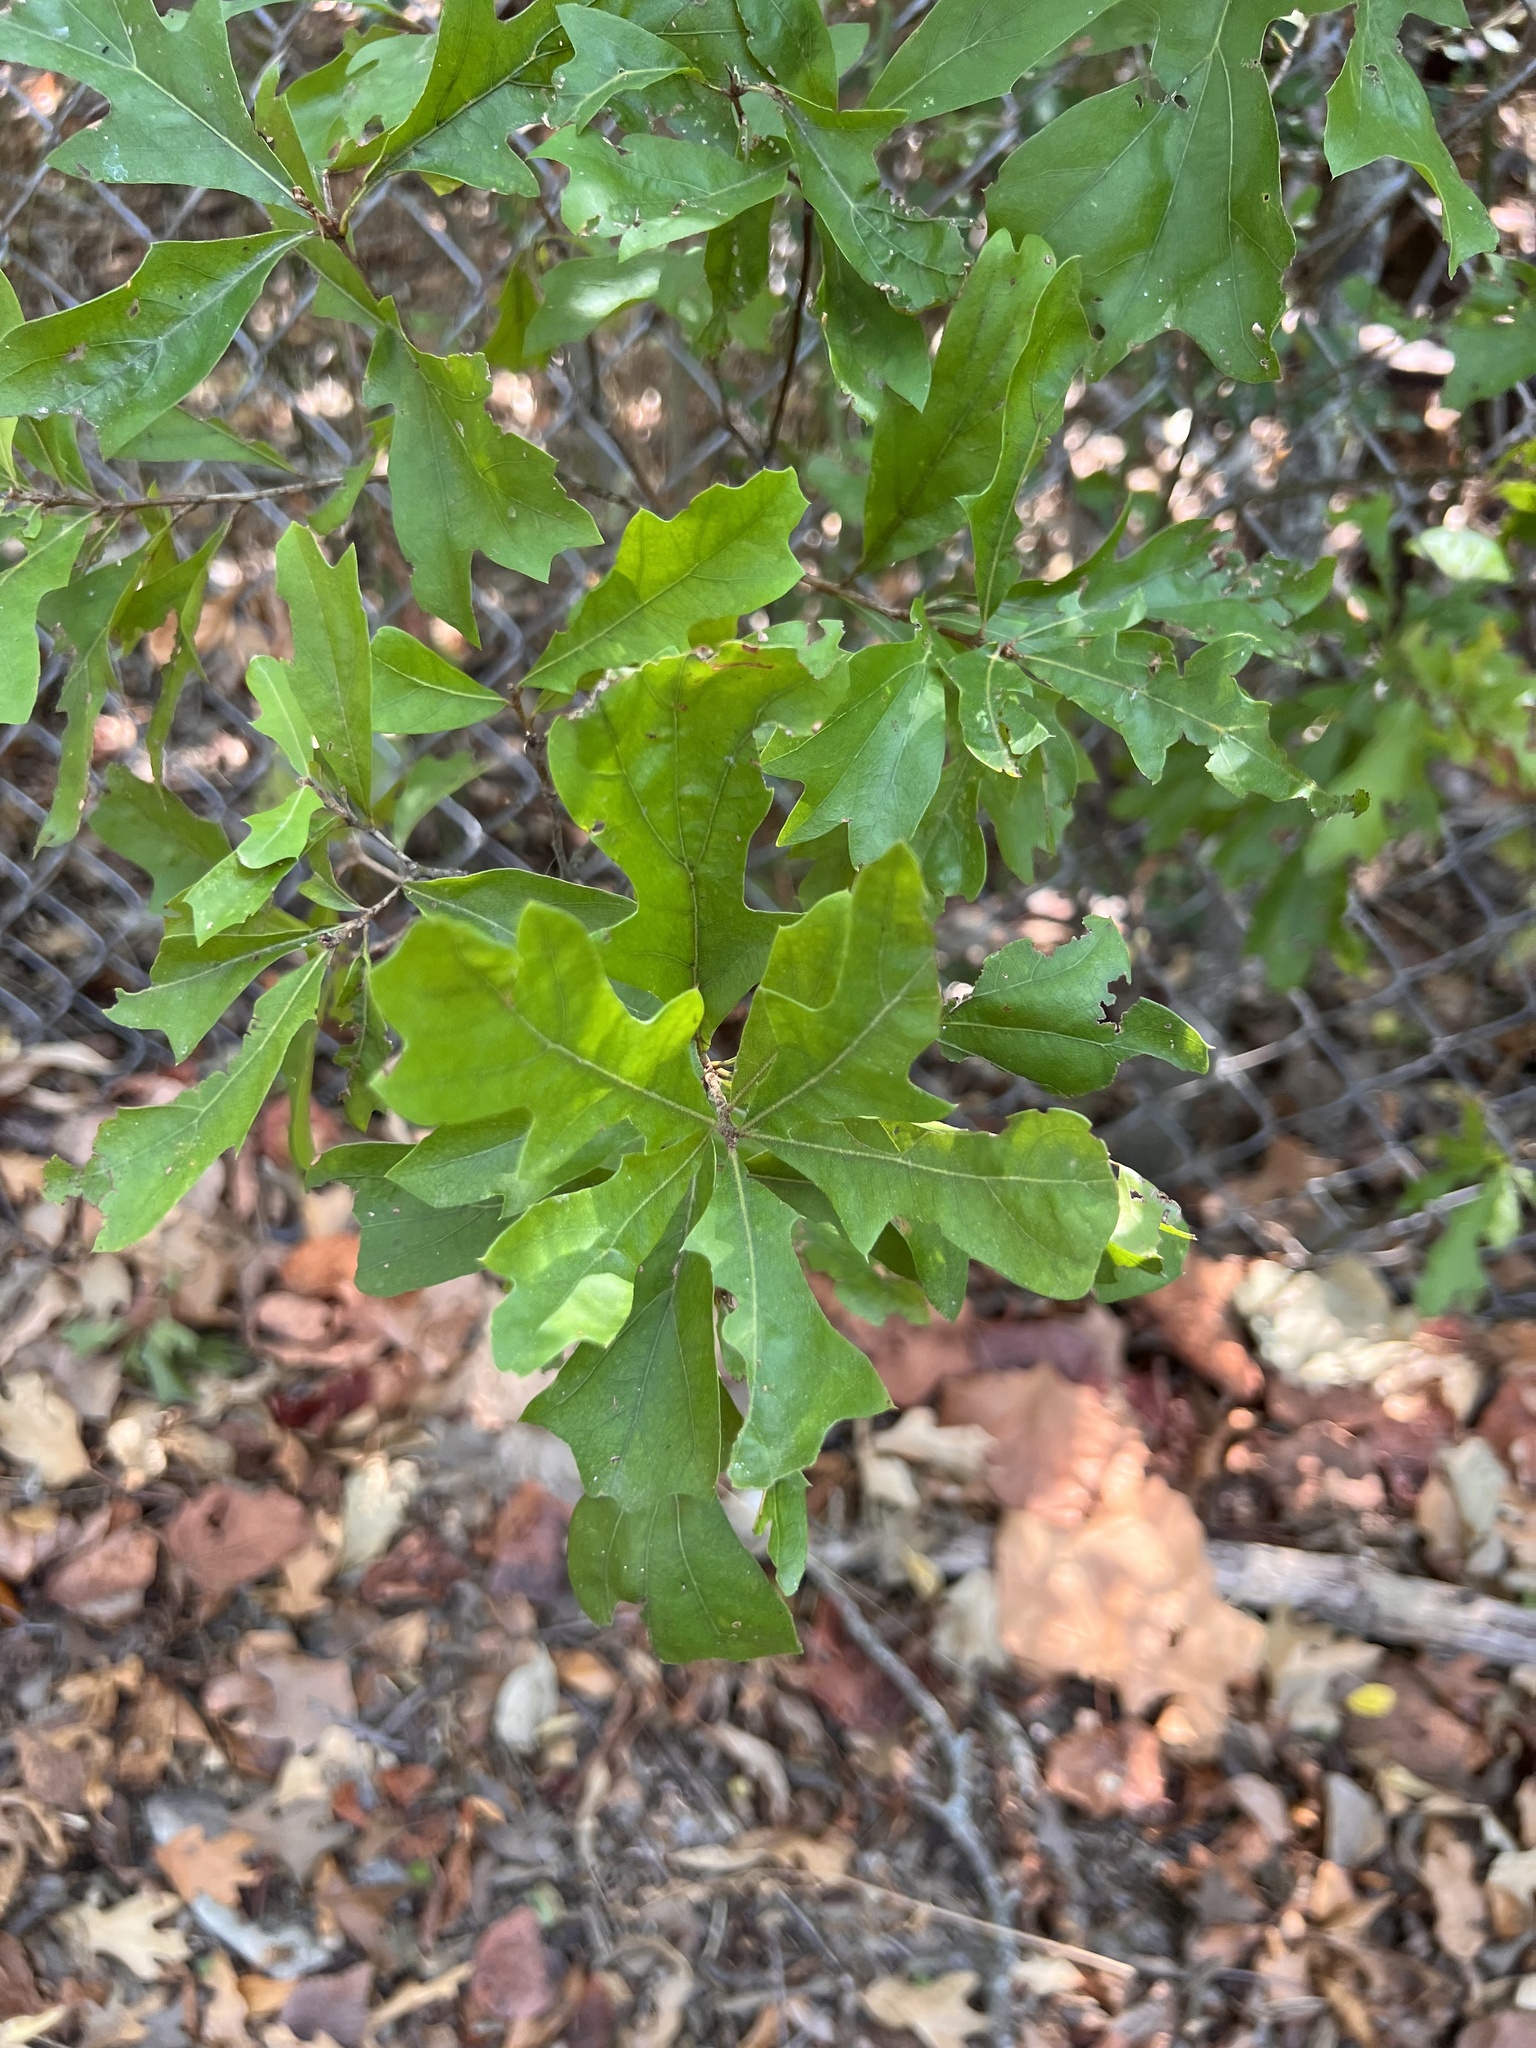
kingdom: Plantae
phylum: Tracheophyta
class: Magnoliopsida
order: Fagales
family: Fagaceae
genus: Quercus
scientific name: Quercus nigra
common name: Water oak
